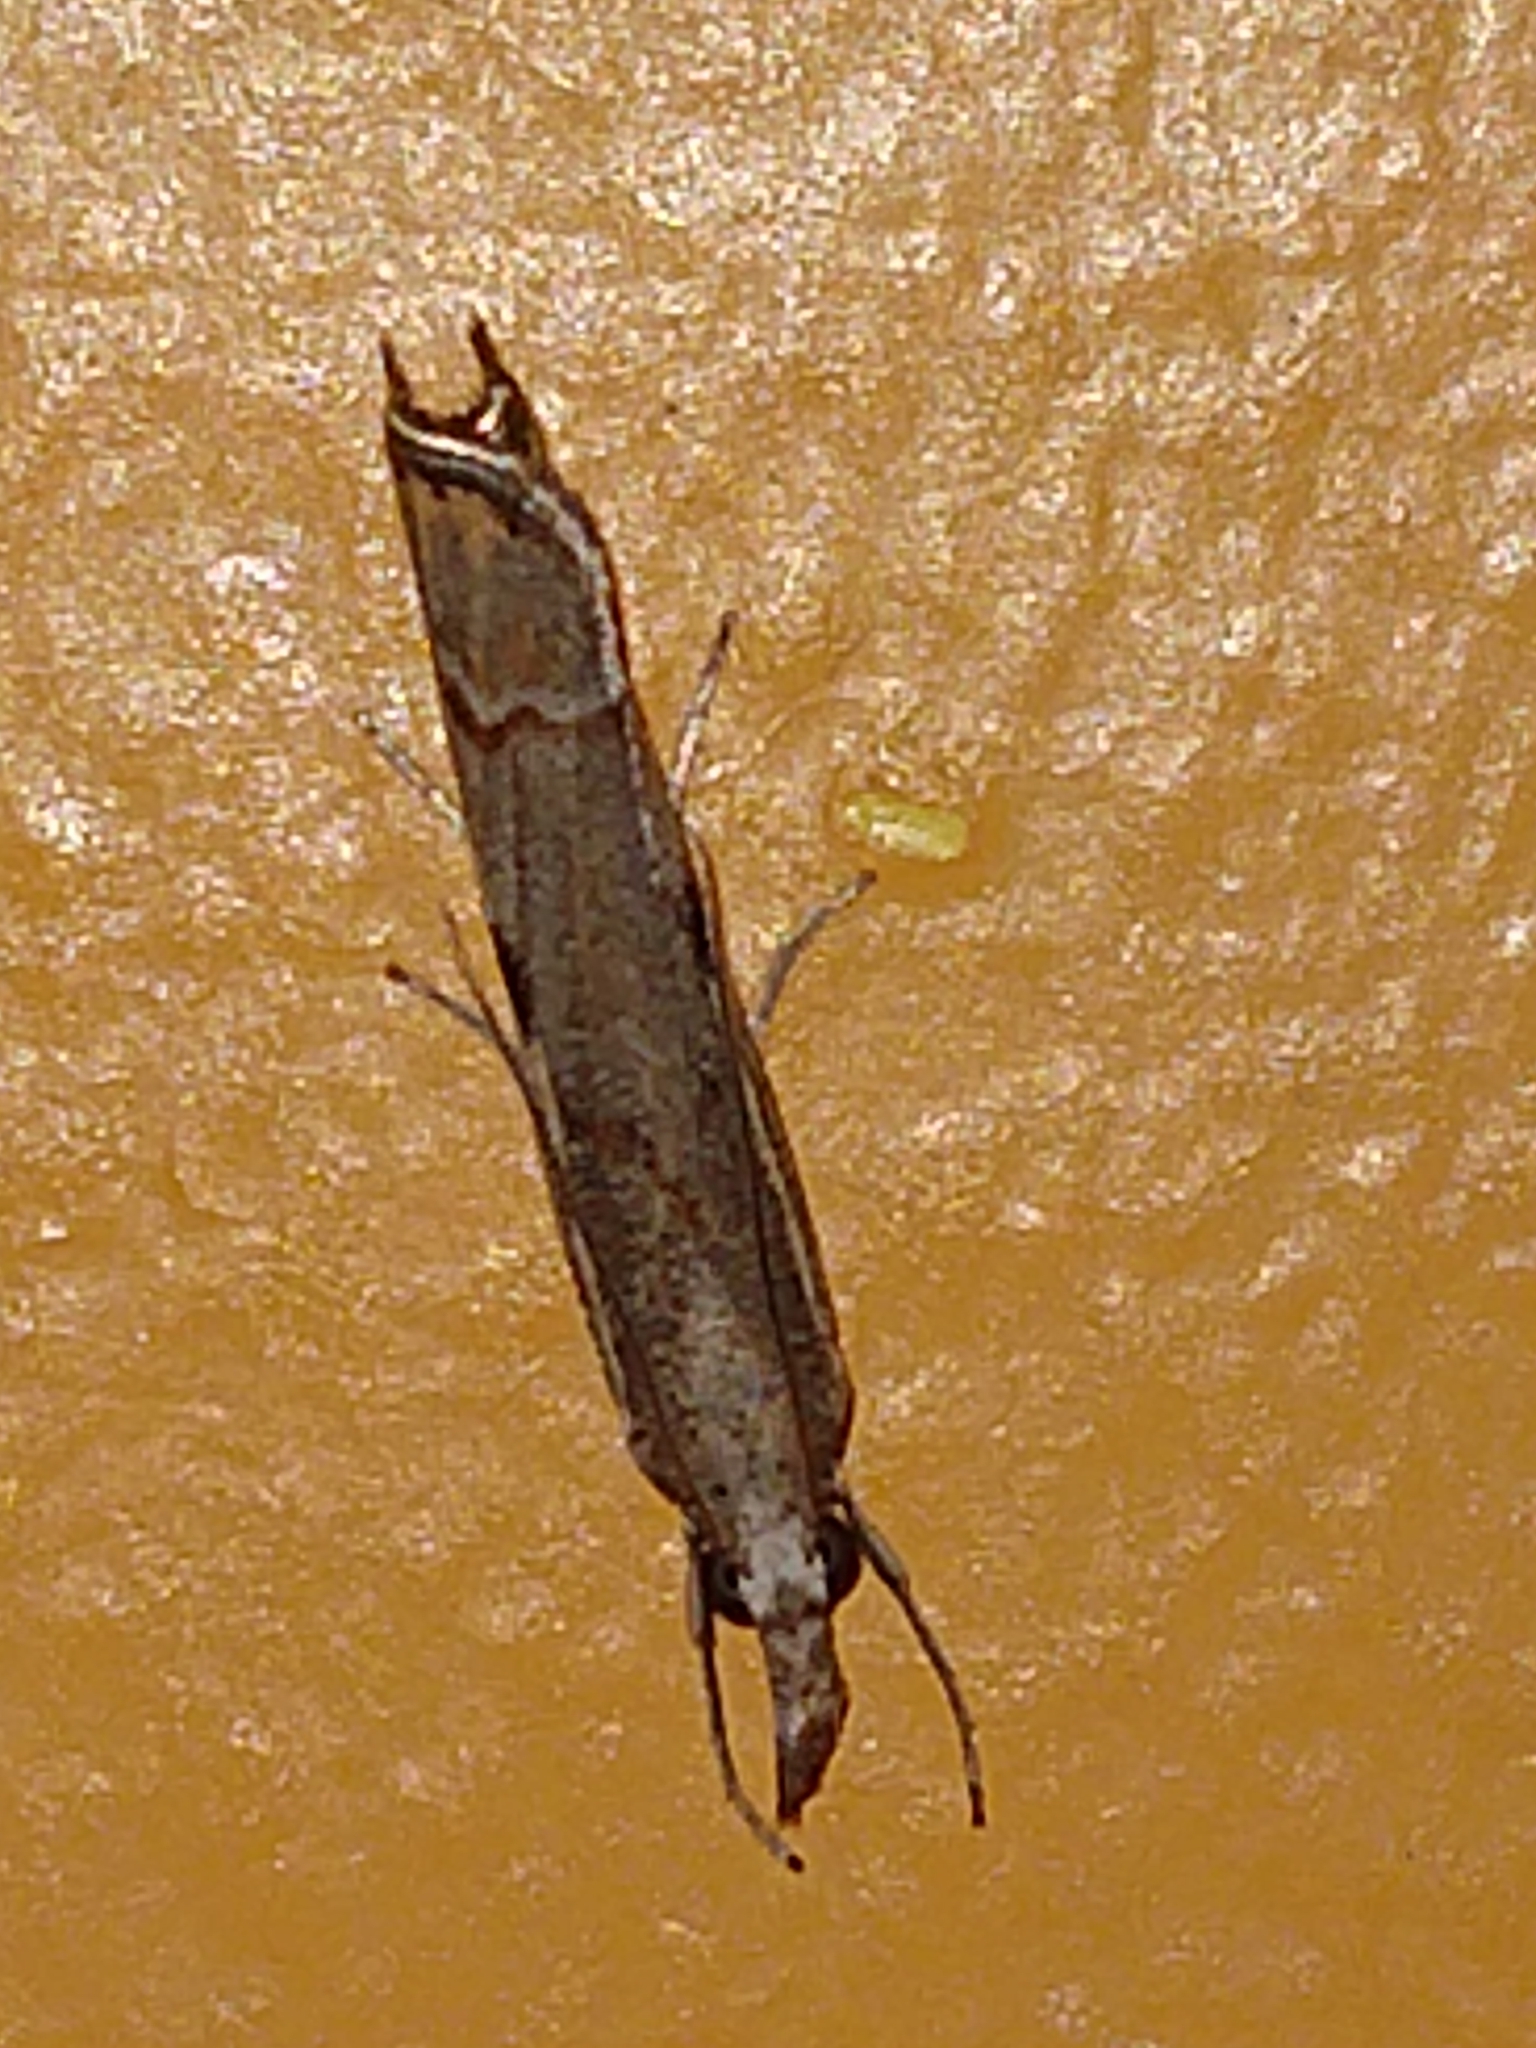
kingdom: Animalia
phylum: Arthropoda
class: Insecta
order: Lepidoptera
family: Crambidae
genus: Agriphila
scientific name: Agriphila geniculea
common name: Elbow-stripe grass-veneer
